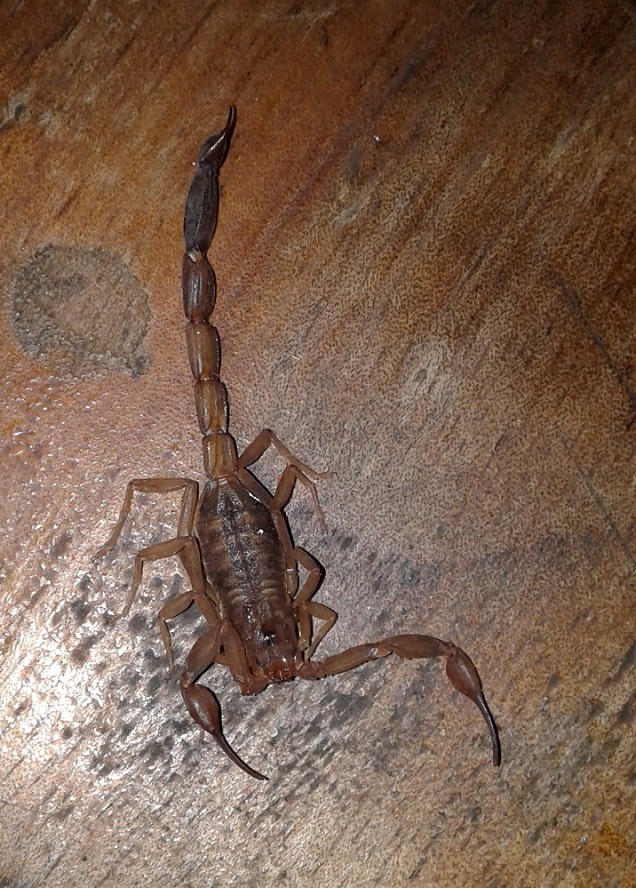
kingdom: Animalia
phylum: Arthropoda
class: Arachnida
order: Scorpiones
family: Buthidae
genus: Tityus
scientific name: Tityus argentinus
